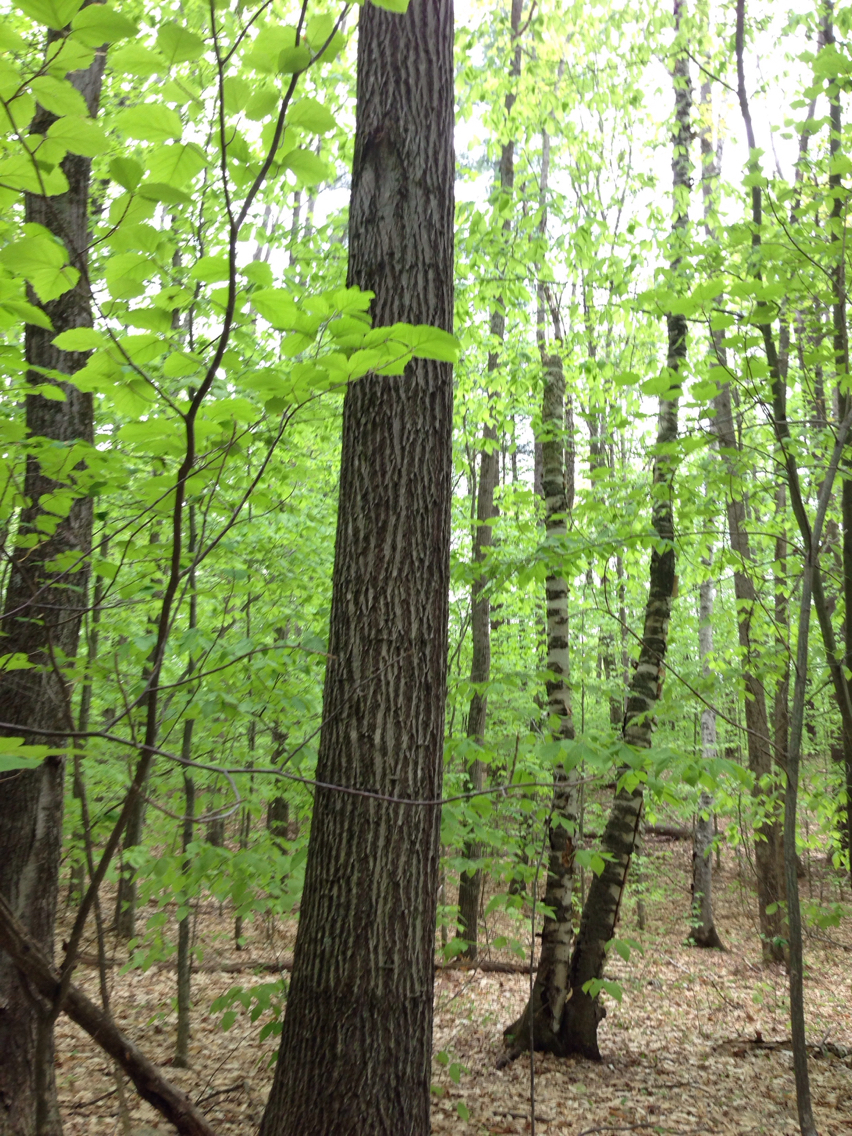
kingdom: Plantae
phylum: Tracheophyta
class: Magnoliopsida
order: Fagales
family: Fagaceae
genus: Quercus
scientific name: Quercus rubra
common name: Red oak
